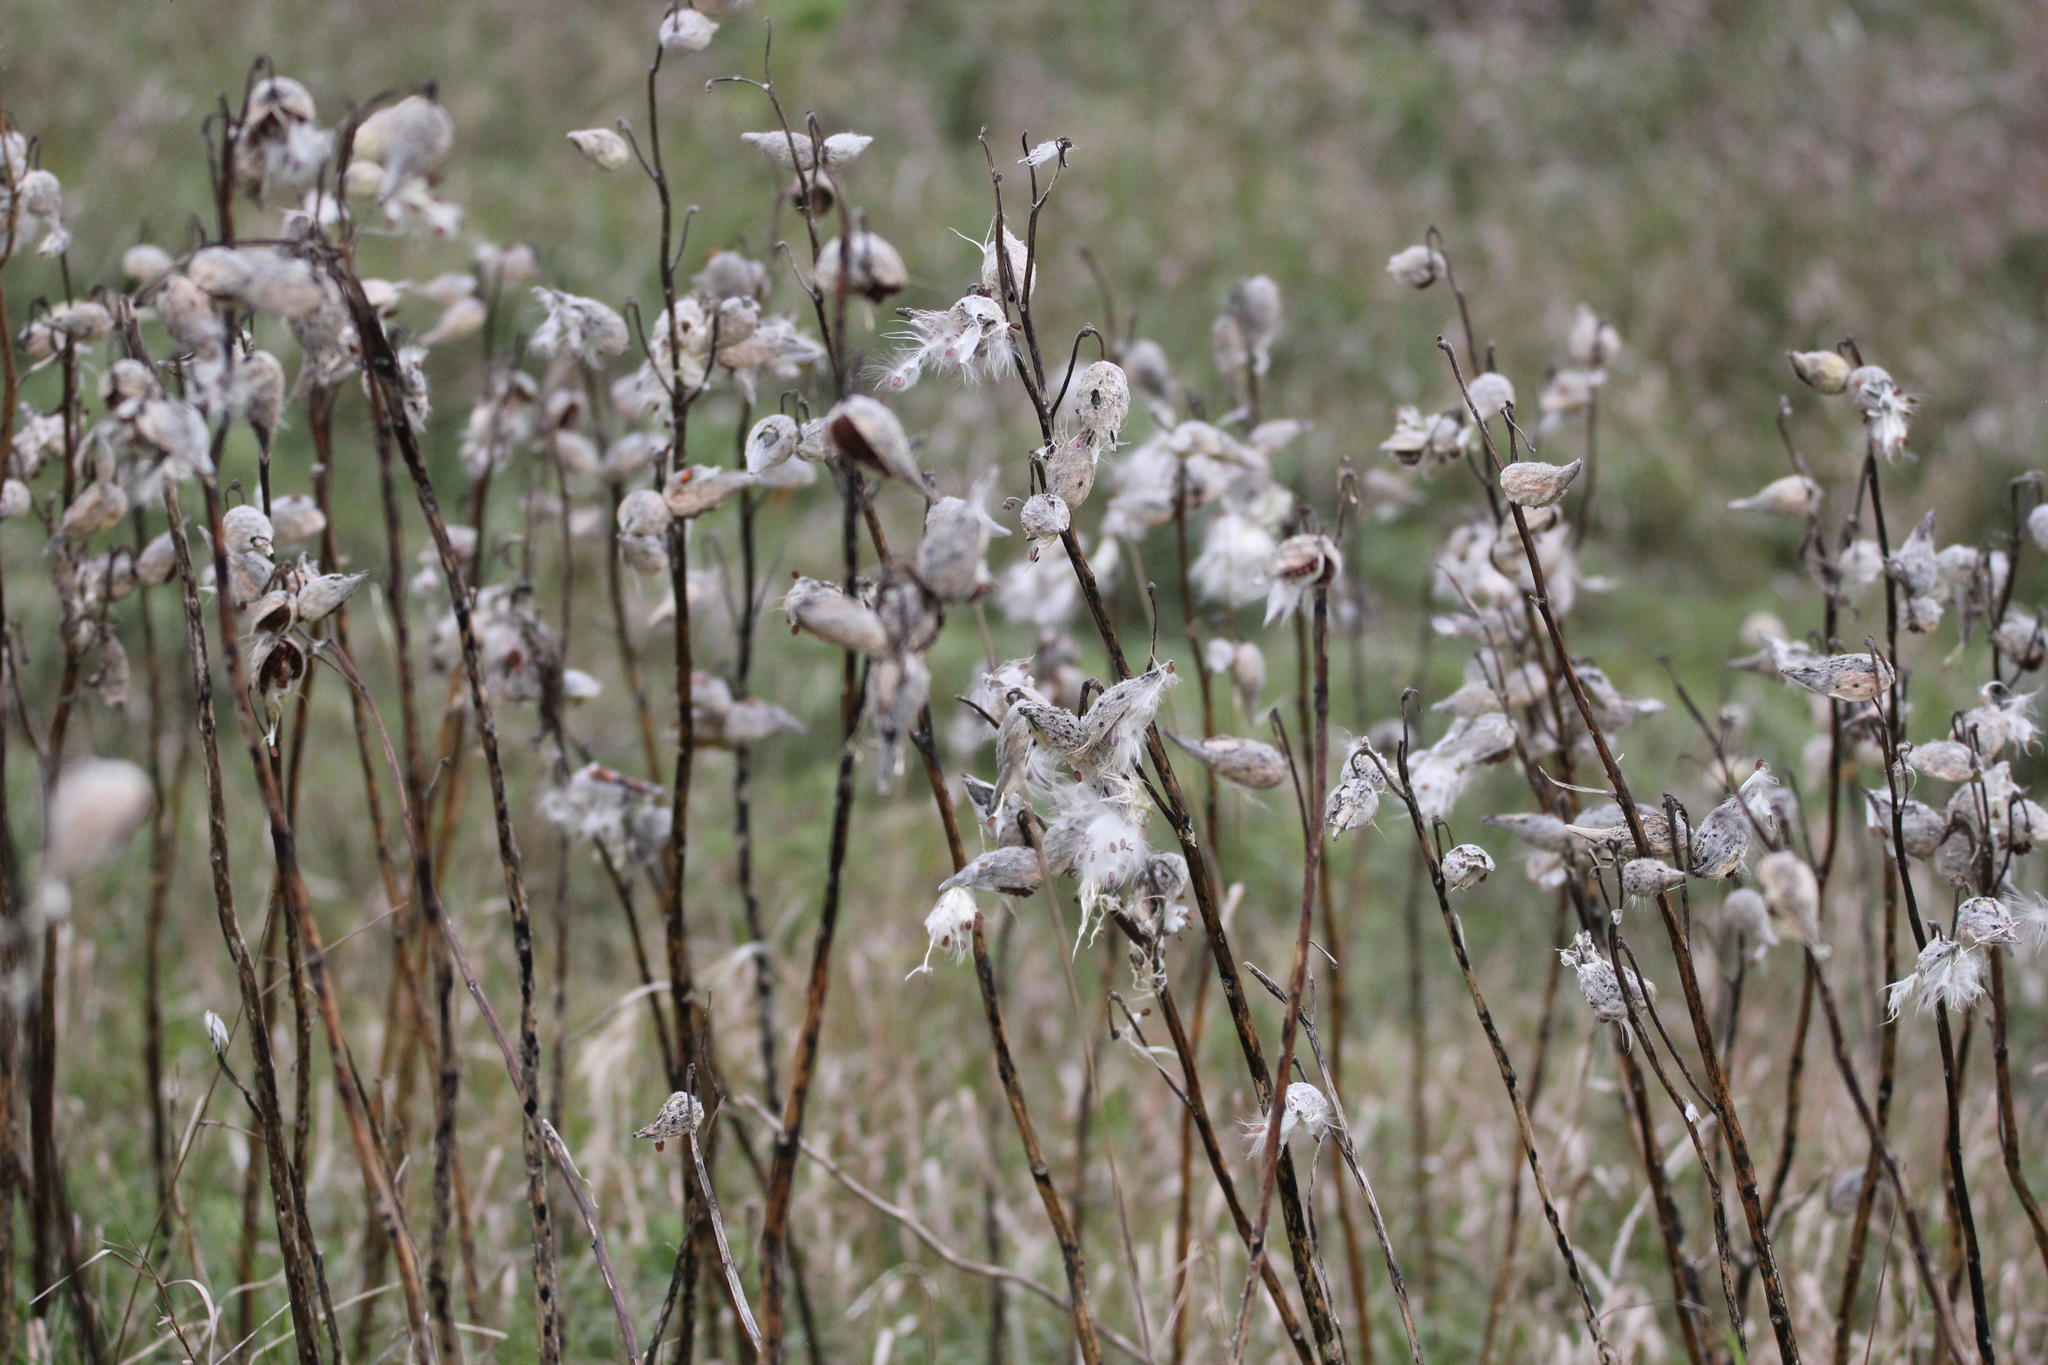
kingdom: Plantae
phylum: Tracheophyta
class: Magnoliopsida
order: Gentianales
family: Apocynaceae
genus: Asclepias
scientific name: Asclepias syriaca
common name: Common milkweed
